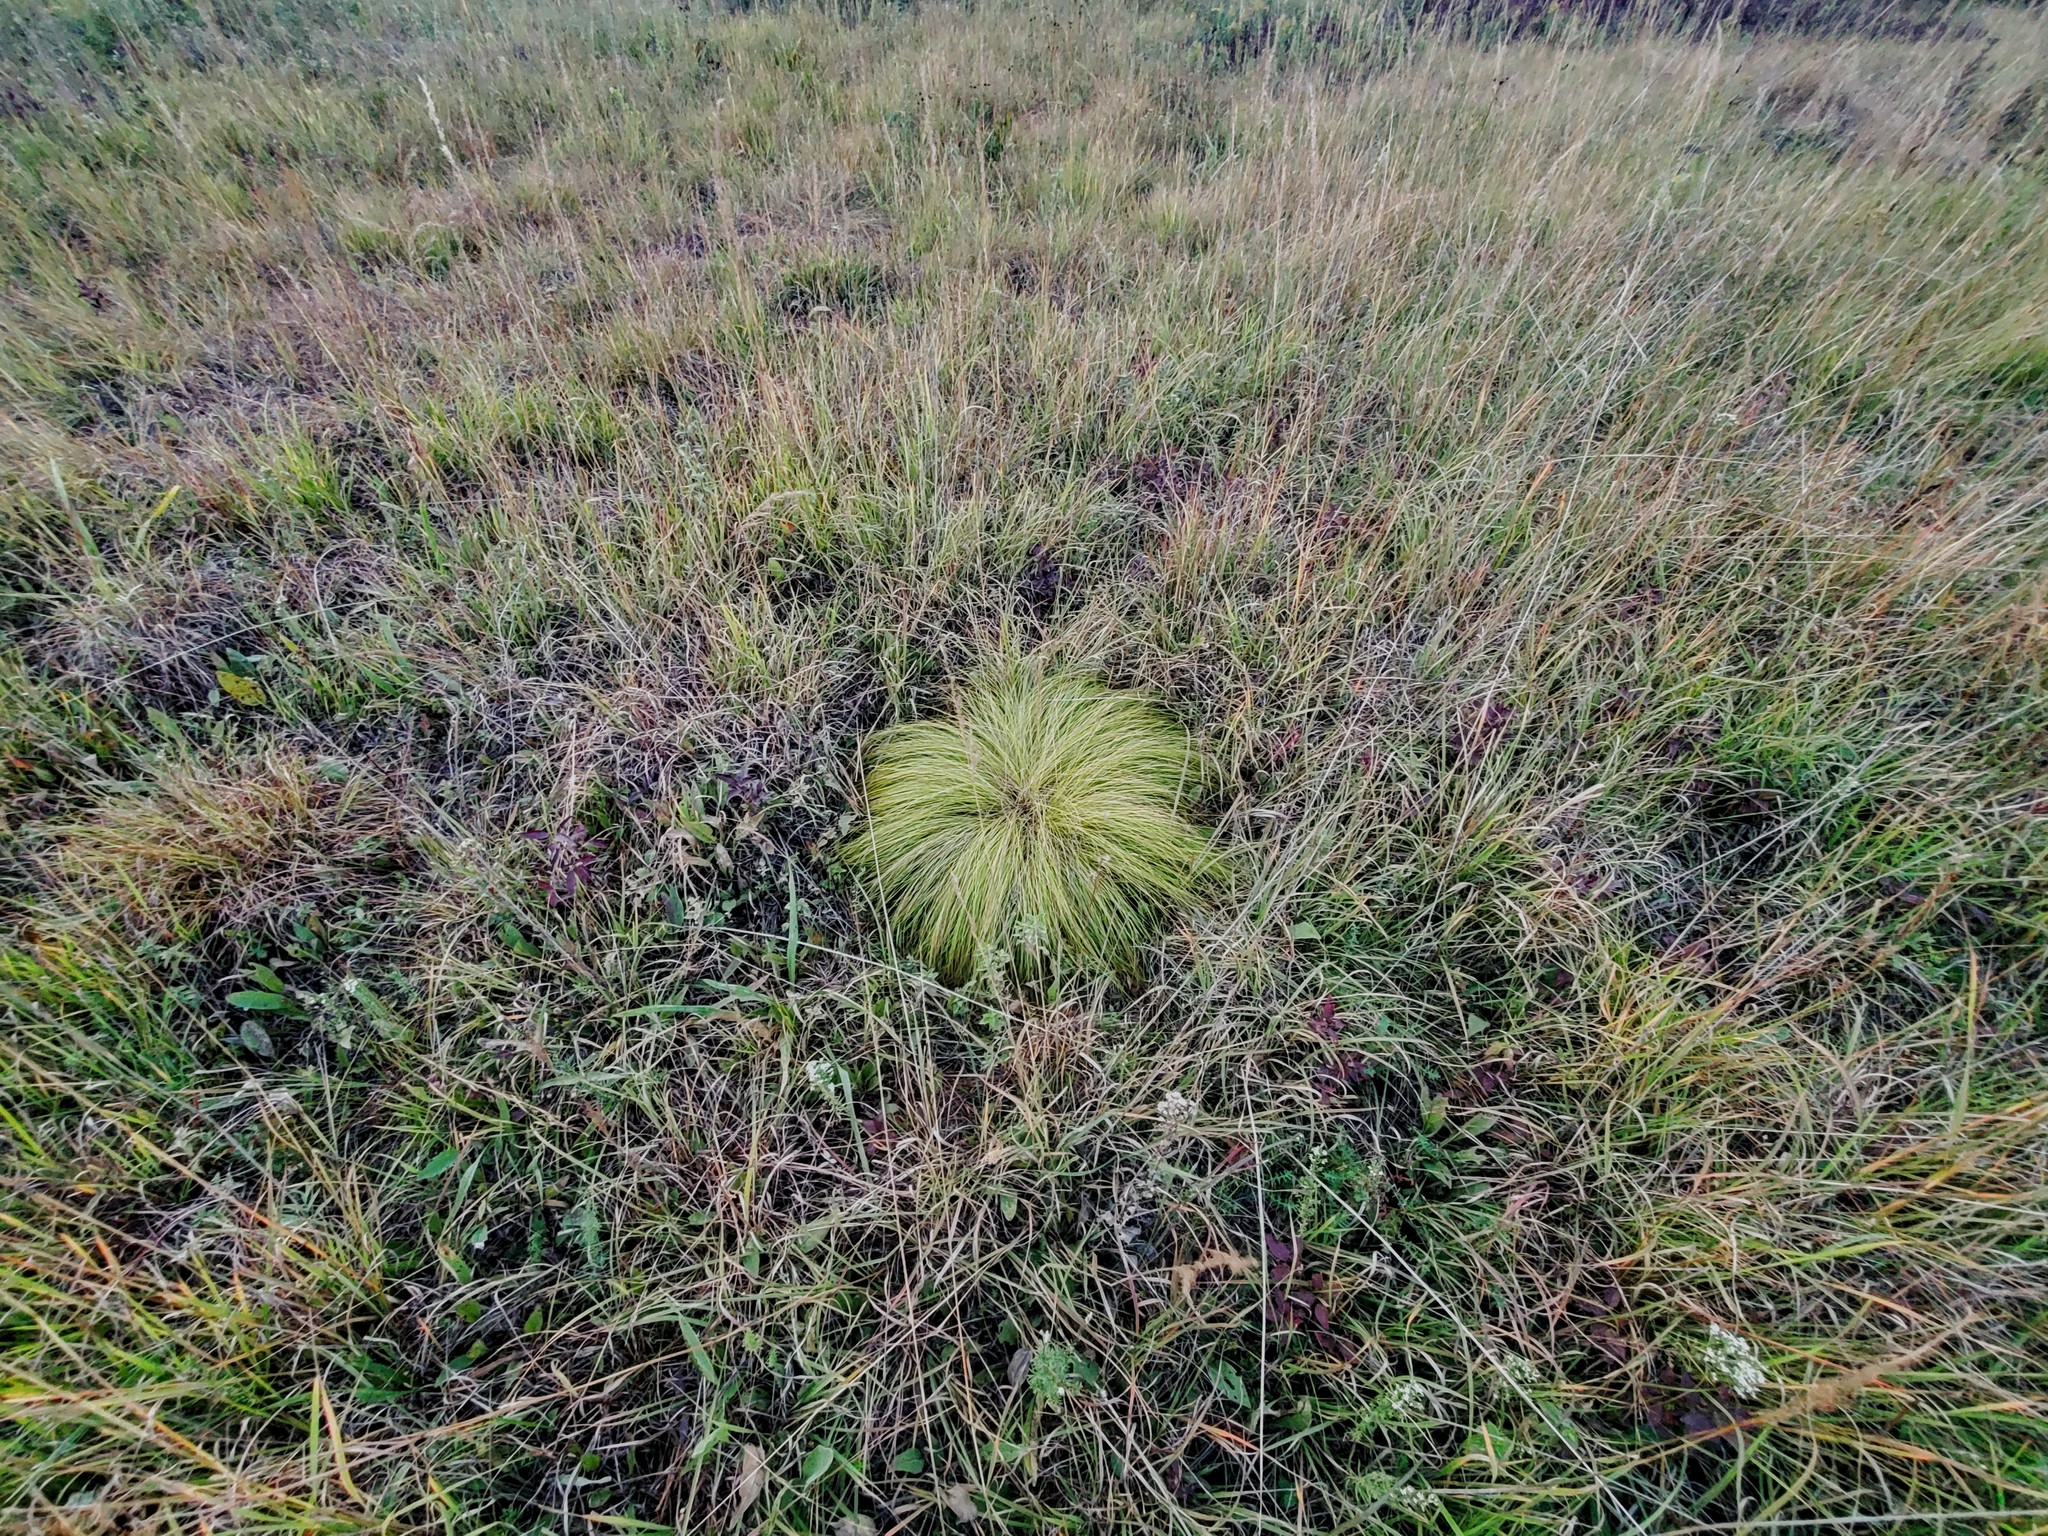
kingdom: Plantae
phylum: Tracheophyta
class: Liliopsida
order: Poales
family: Poaceae
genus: Sporobolus
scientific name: Sporobolus heterolepis
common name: Prairie dropseed
